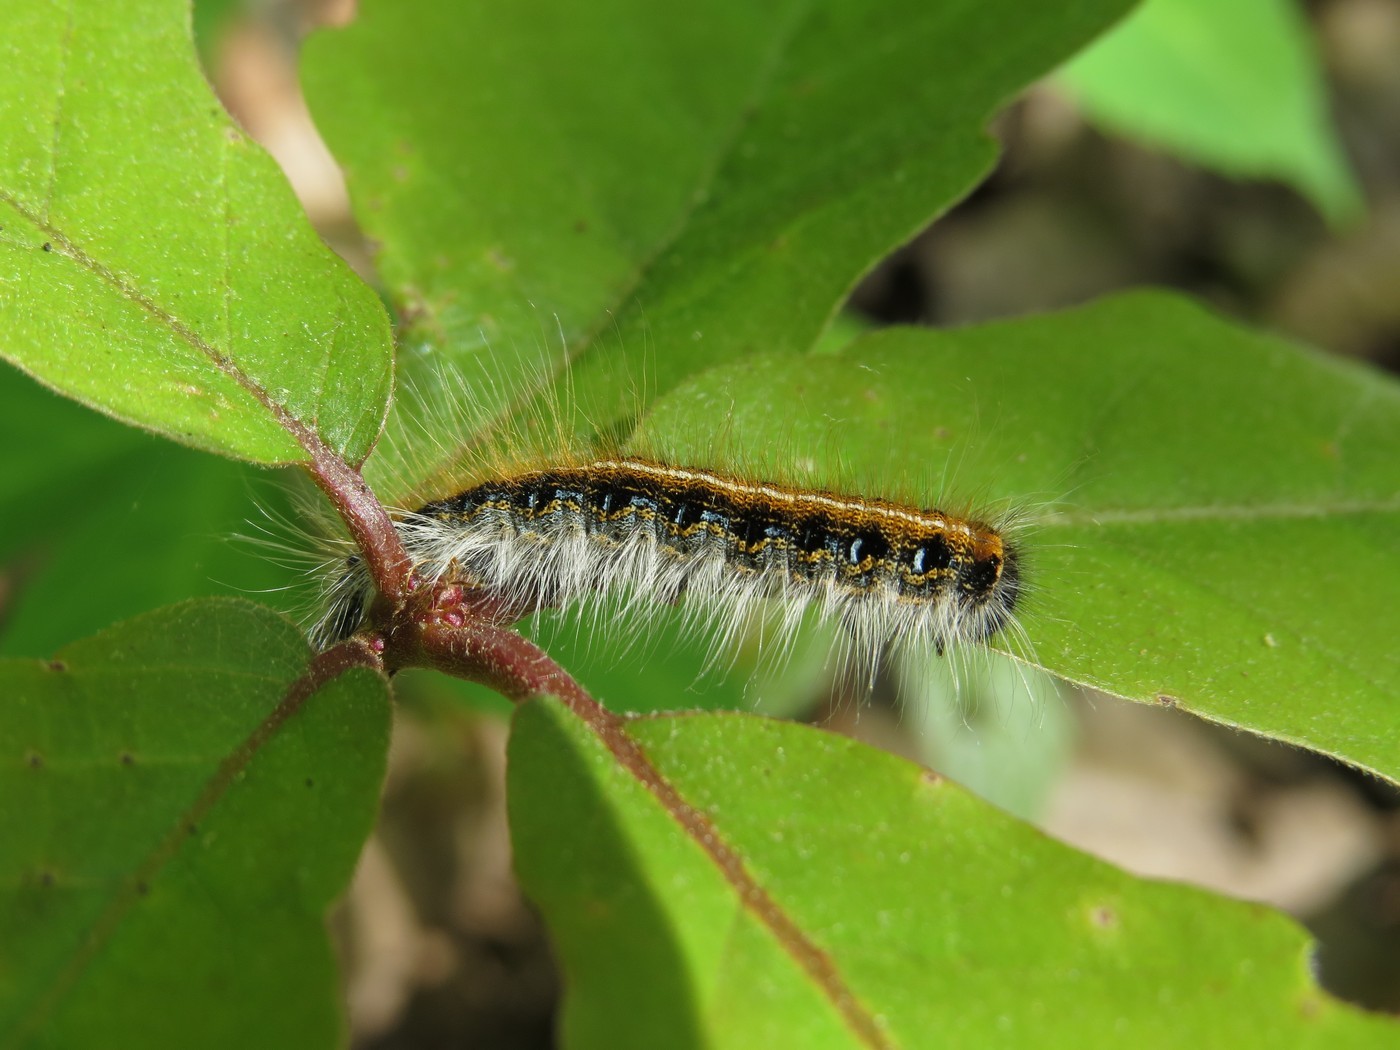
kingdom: Animalia
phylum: Arthropoda
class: Insecta
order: Lepidoptera
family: Lasiocampidae
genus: Malacosoma
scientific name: Malacosoma americana
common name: Eastern tent caterpillar moth
